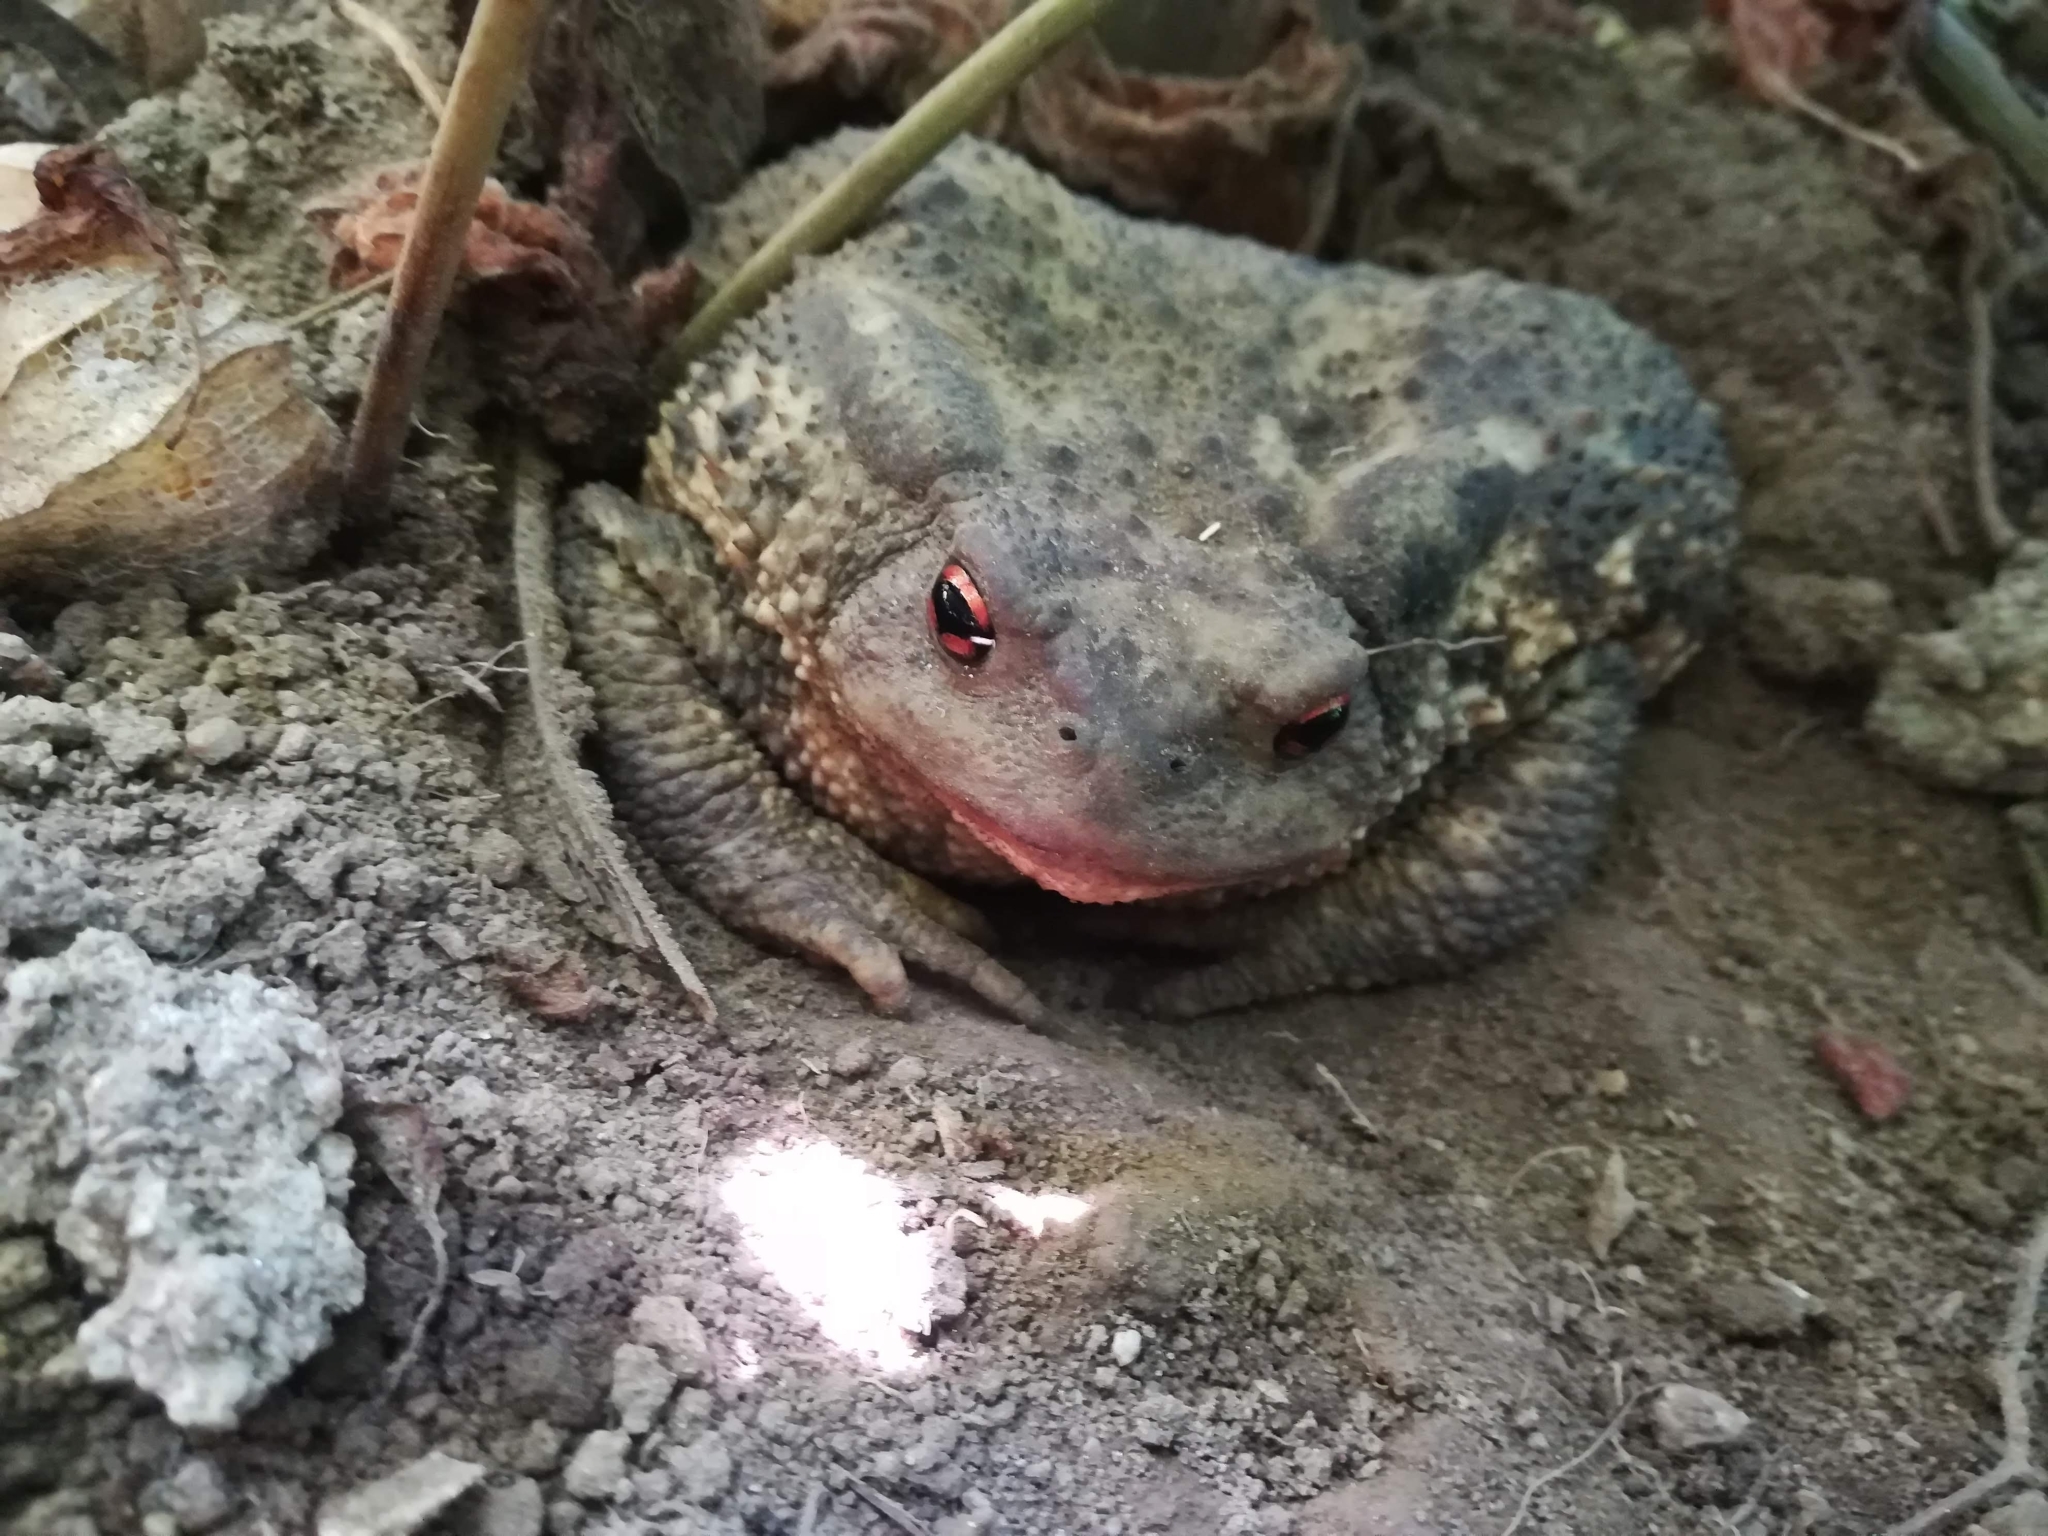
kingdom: Animalia
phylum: Chordata
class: Amphibia
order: Anura
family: Bufonidae
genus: Bufo
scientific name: Bufo spinosus
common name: Western common toad
